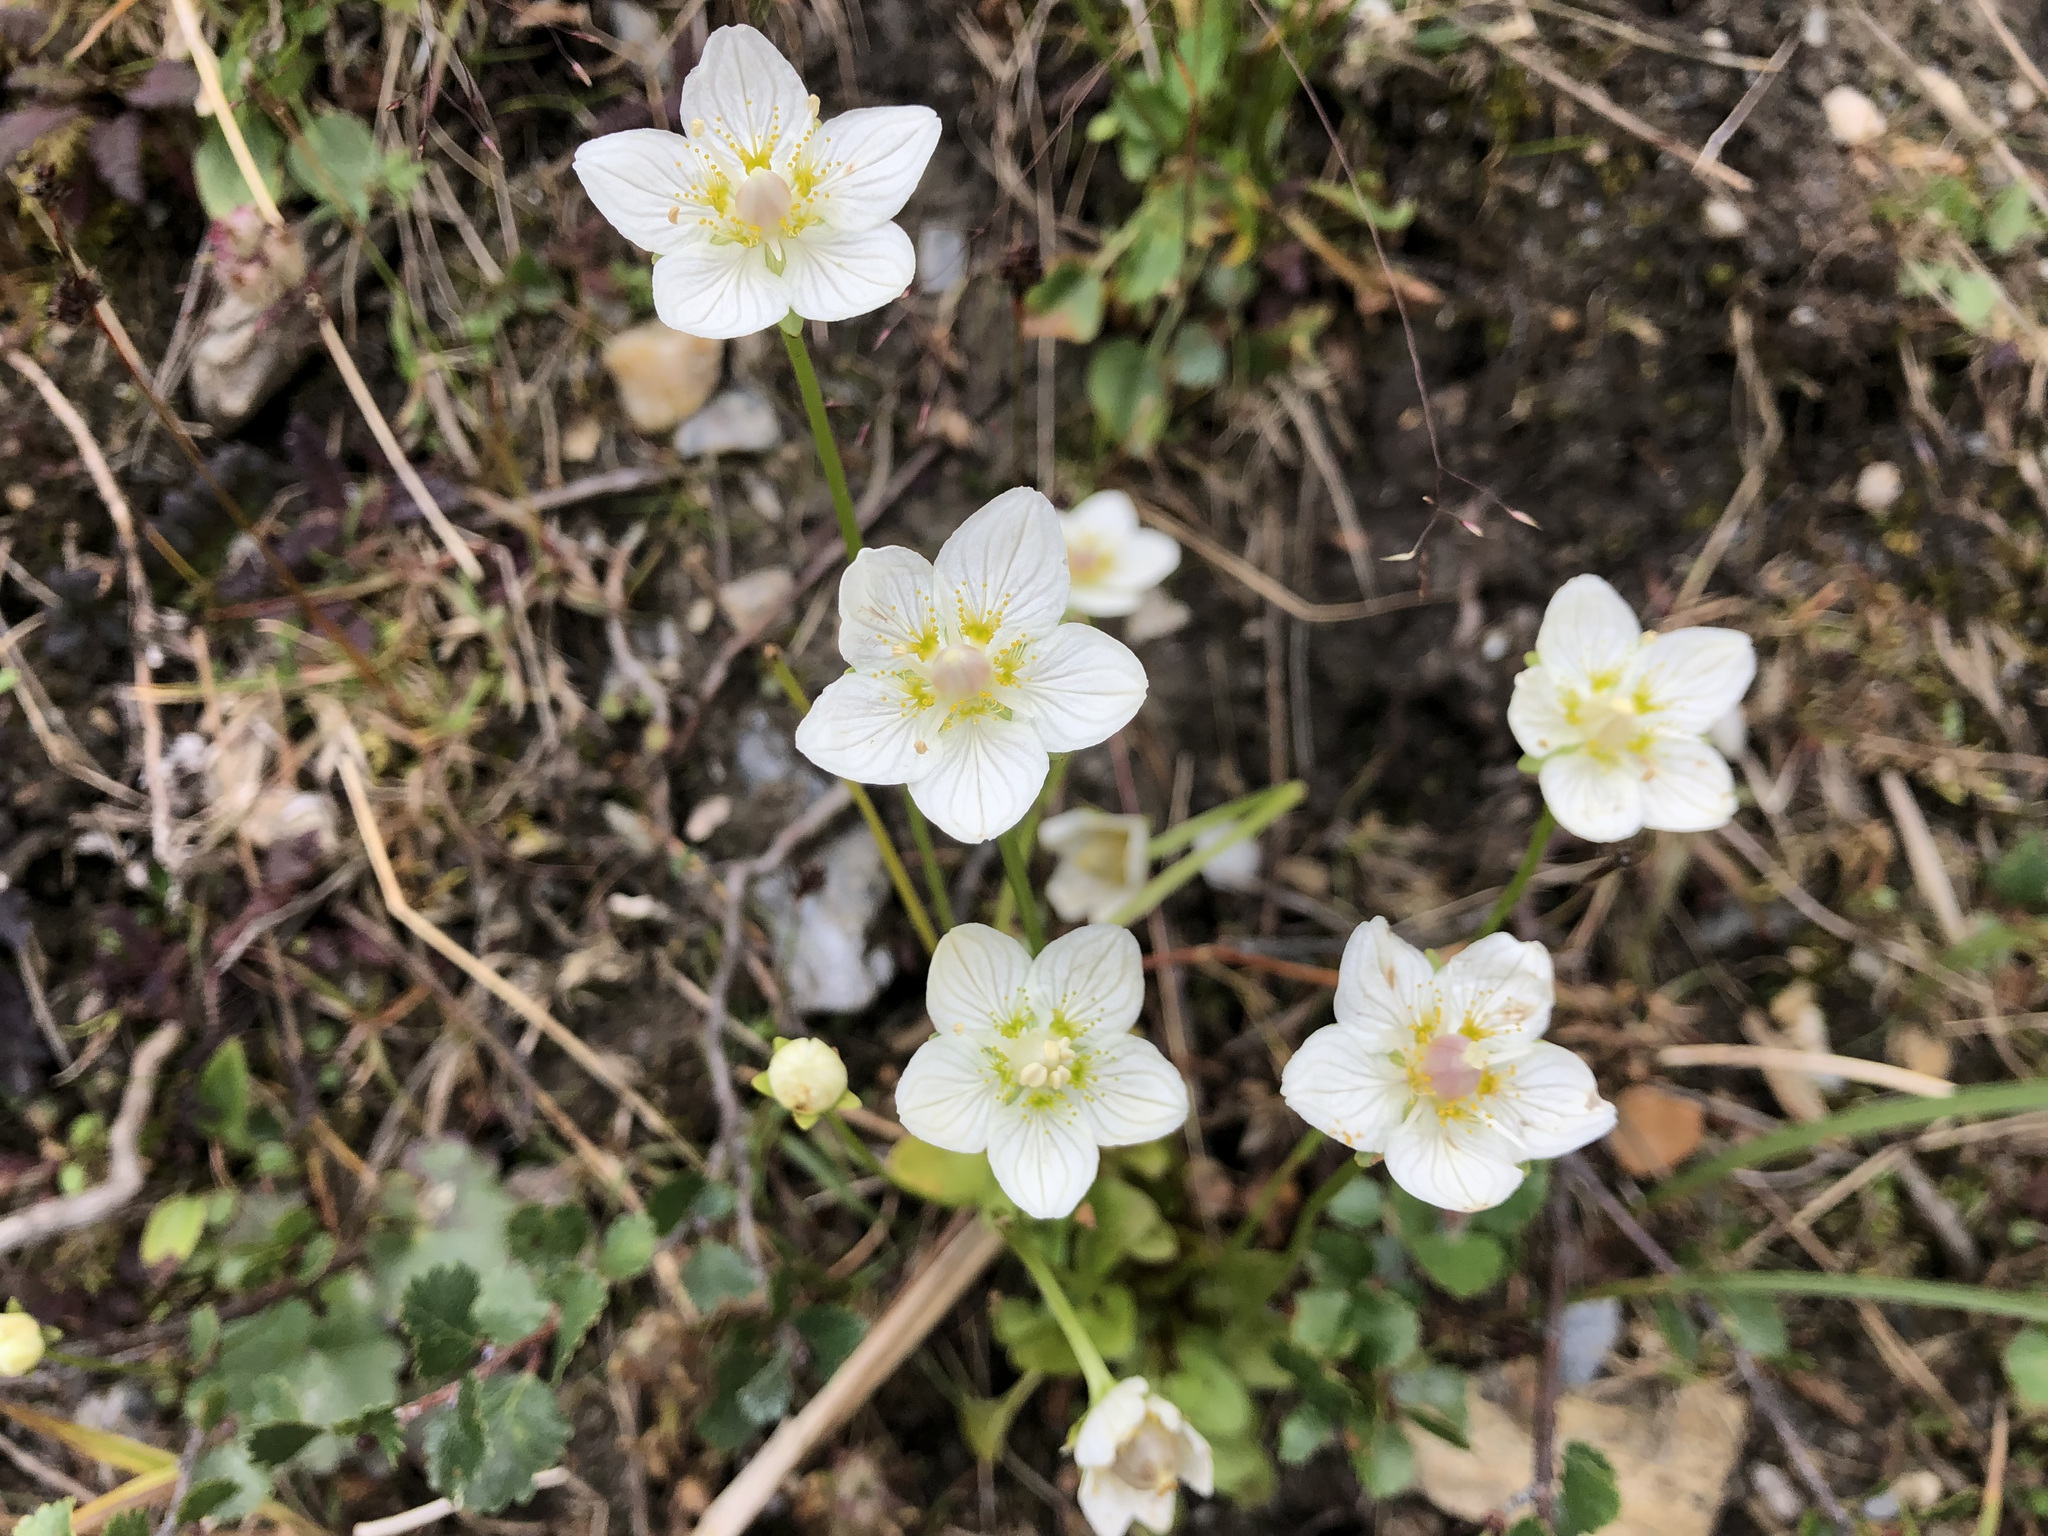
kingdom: Plantae
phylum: Tracheophyta
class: Magnoliopsida
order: Celastrales
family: Parnassiaceae
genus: Parnassia
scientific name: Parnassia palustris
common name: Grass-of-parnassus
